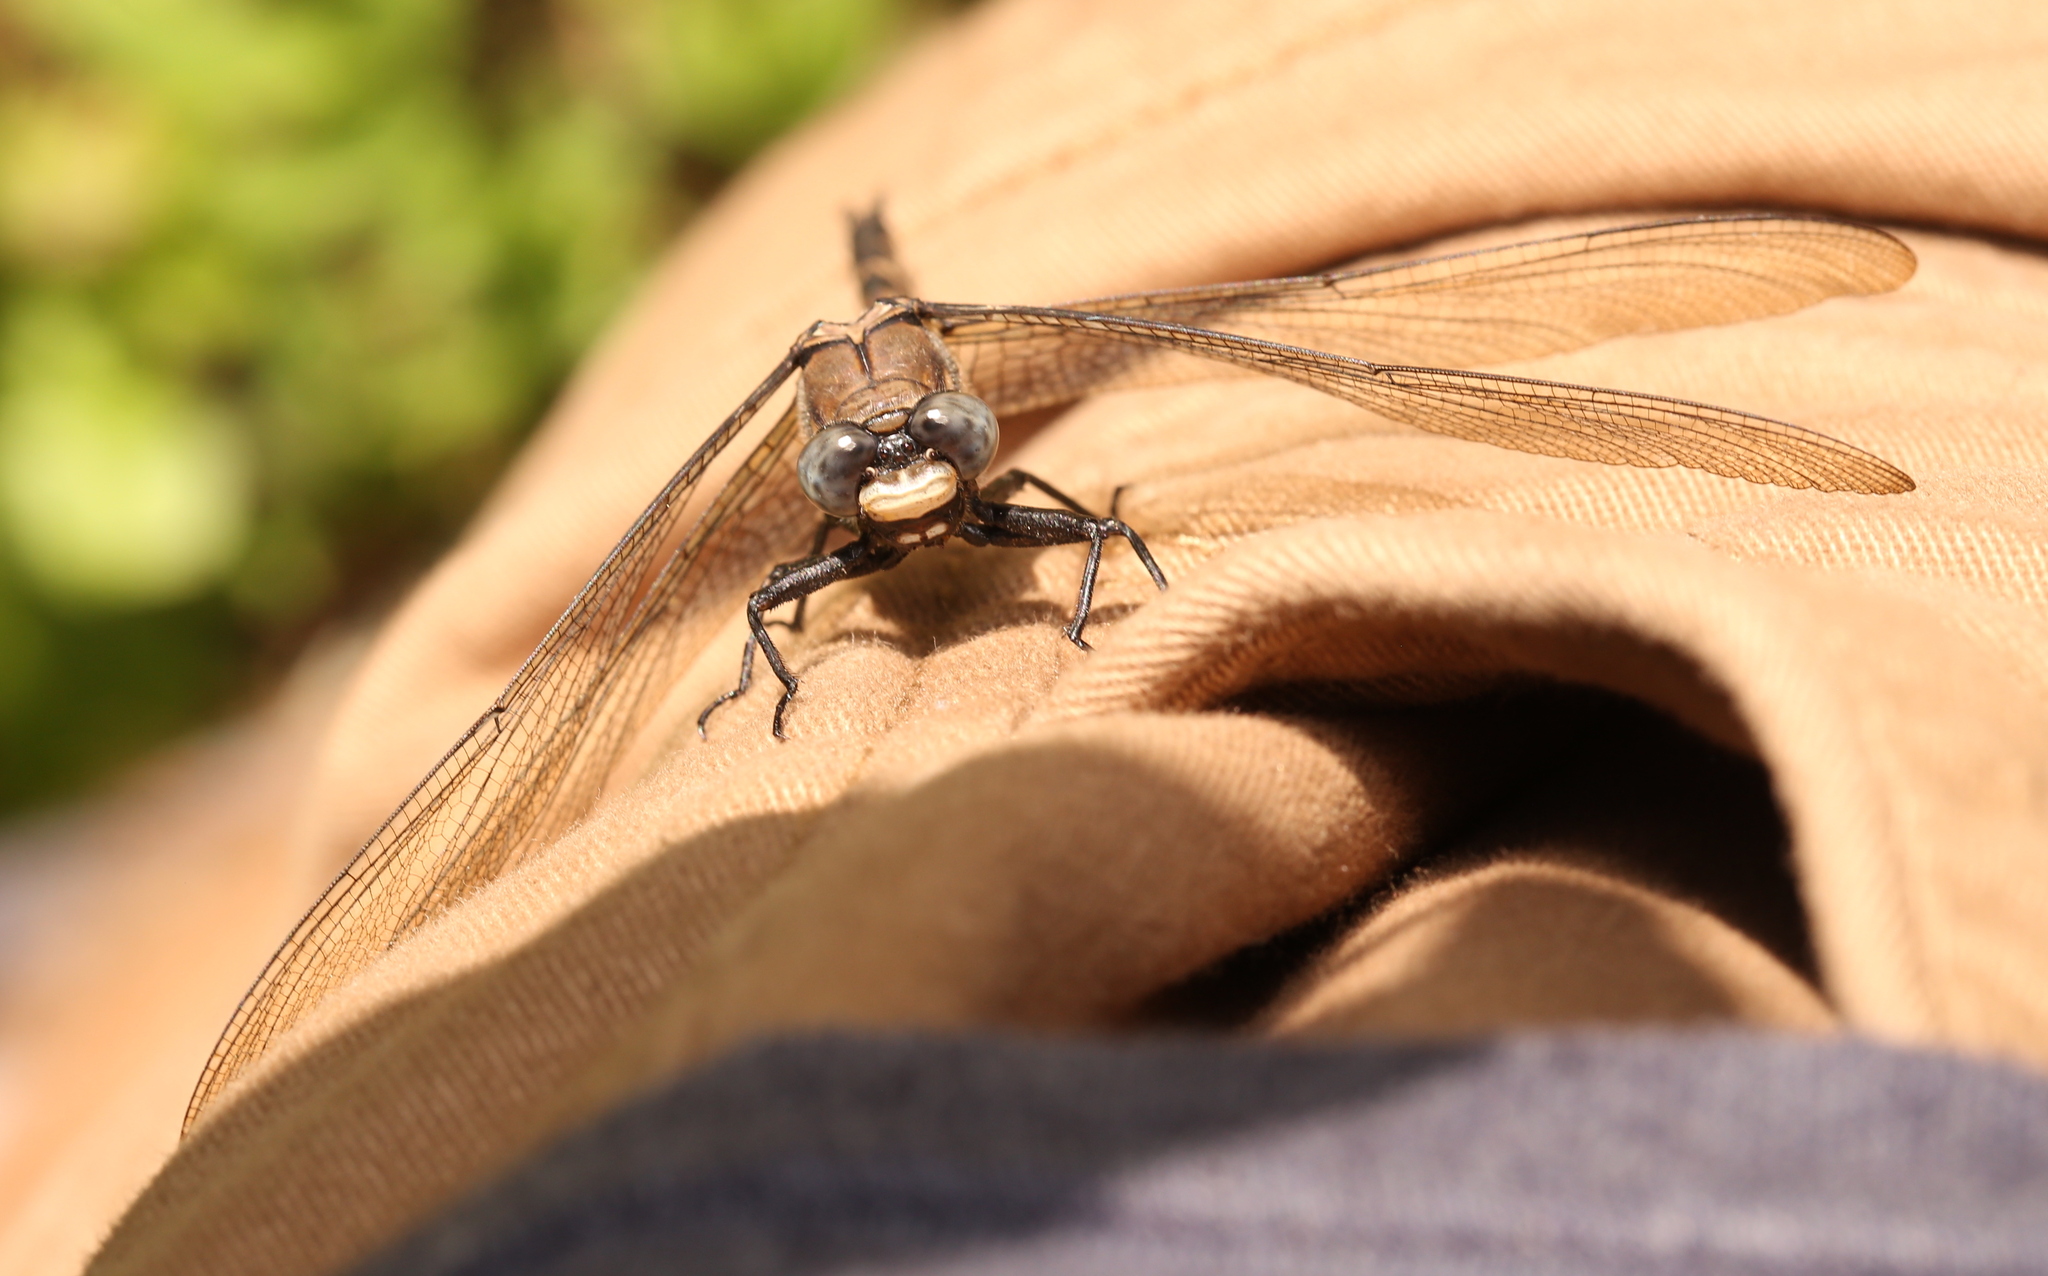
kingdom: Animalia
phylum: Arthropoda
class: Insecta
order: Odonata
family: Petaluridae
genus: Tachopteryx
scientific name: Tachopteryx thoreyi
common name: Gray petaltail
